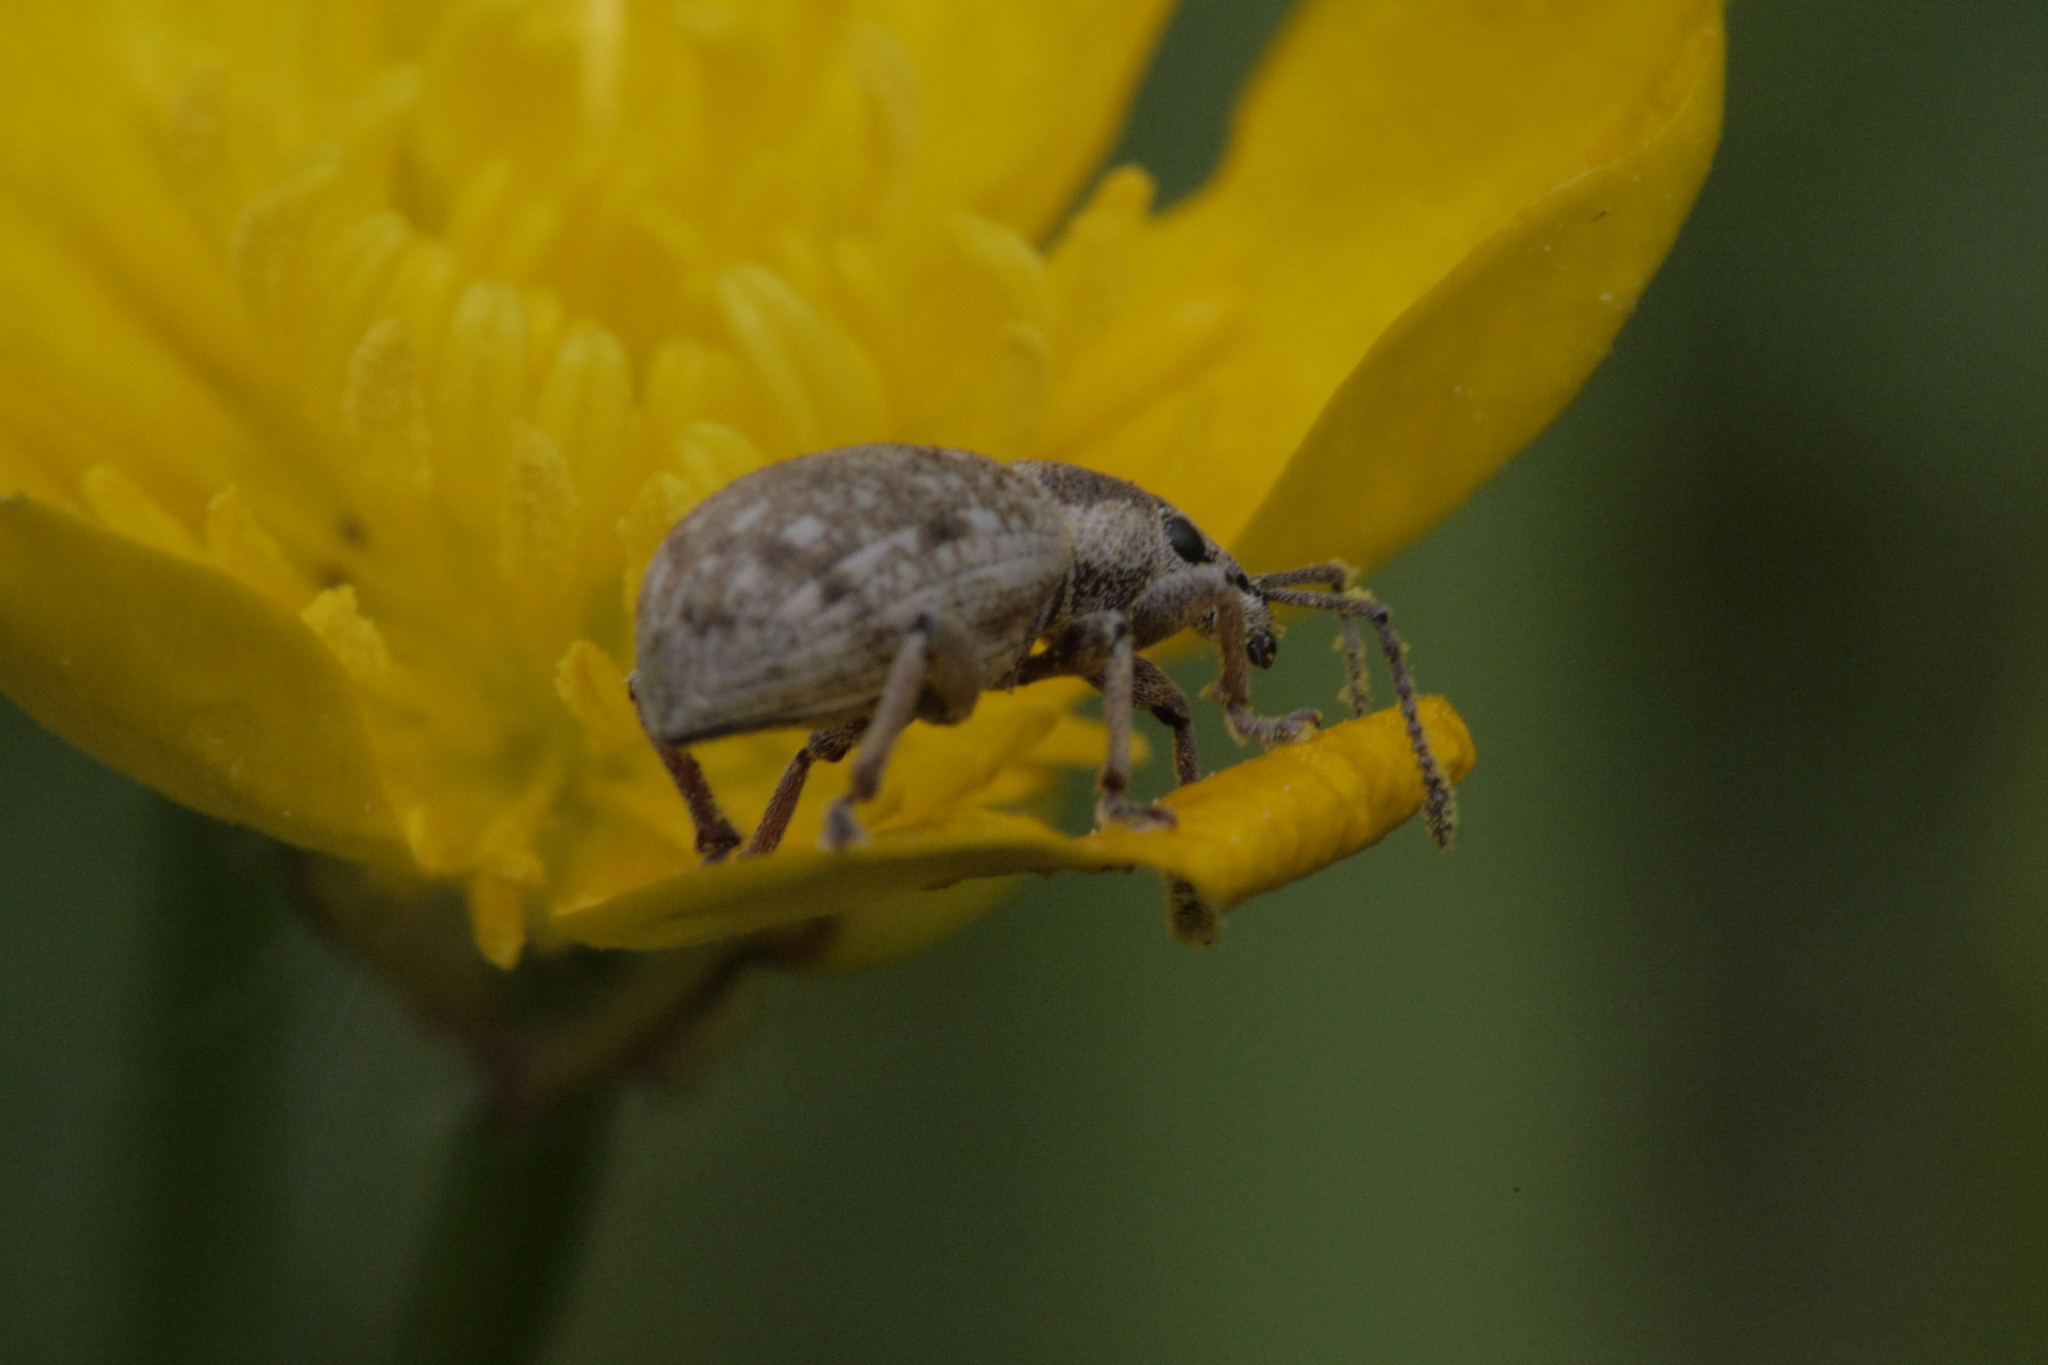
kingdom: Animalia
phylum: Arthropoda
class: Insecta
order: Coleoptera
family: Curculionidae
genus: Peritelus
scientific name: Peritelus sphaeroides
